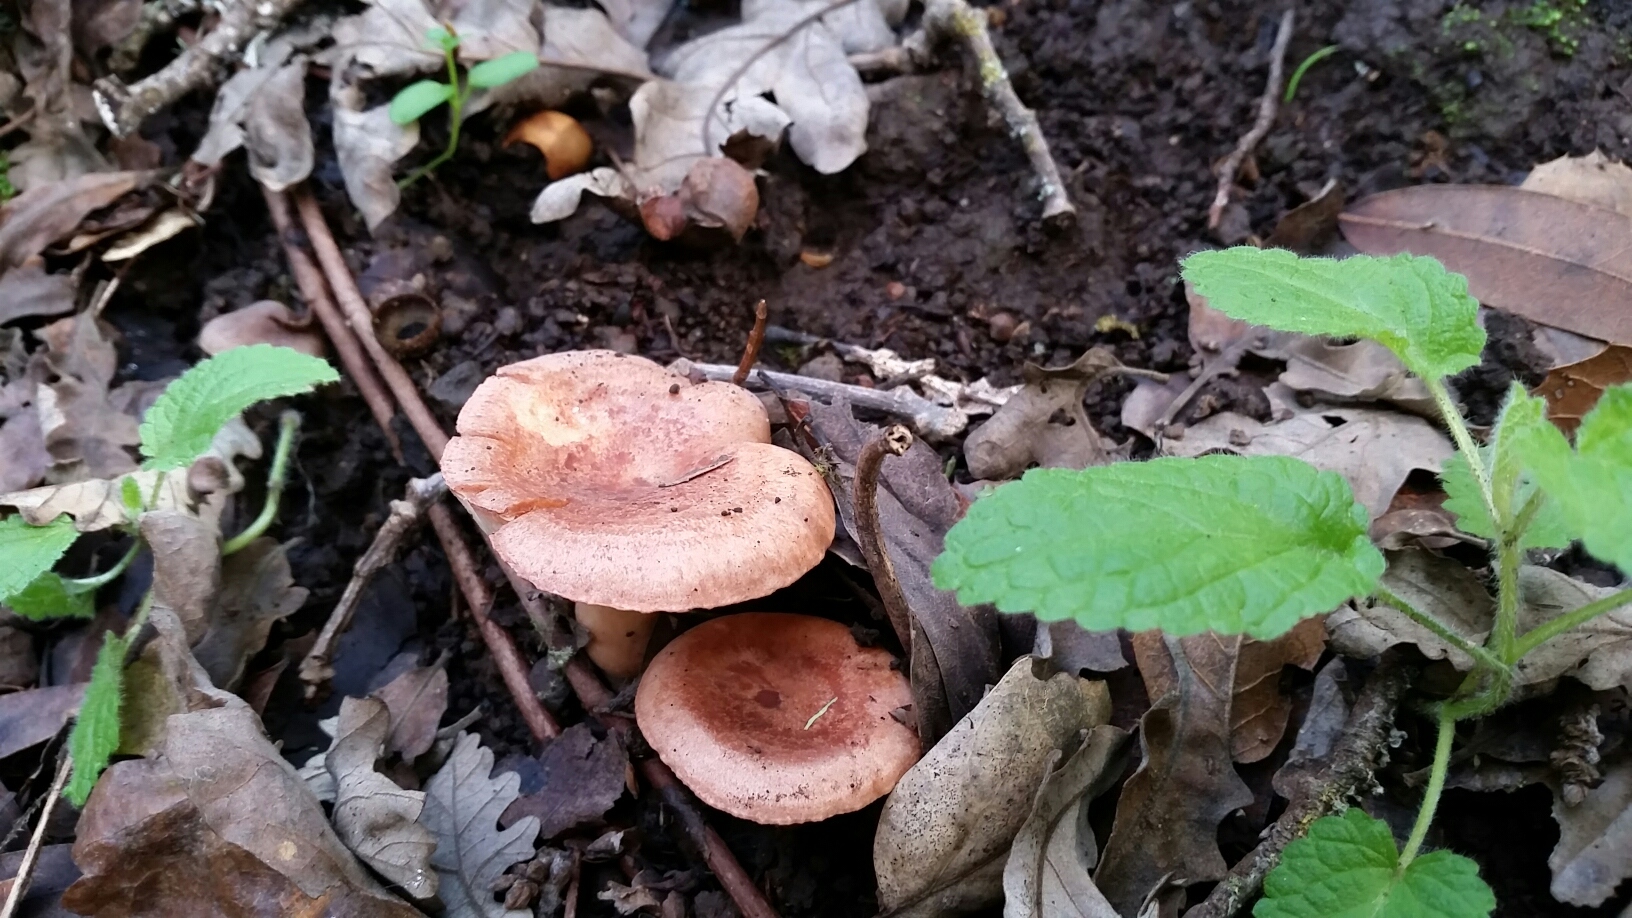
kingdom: Fungi
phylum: Basidiomycota
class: Agaricomycetes
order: Russulales
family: Russulaceae
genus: Lactarius
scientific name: Lactarius xanthogalactus
